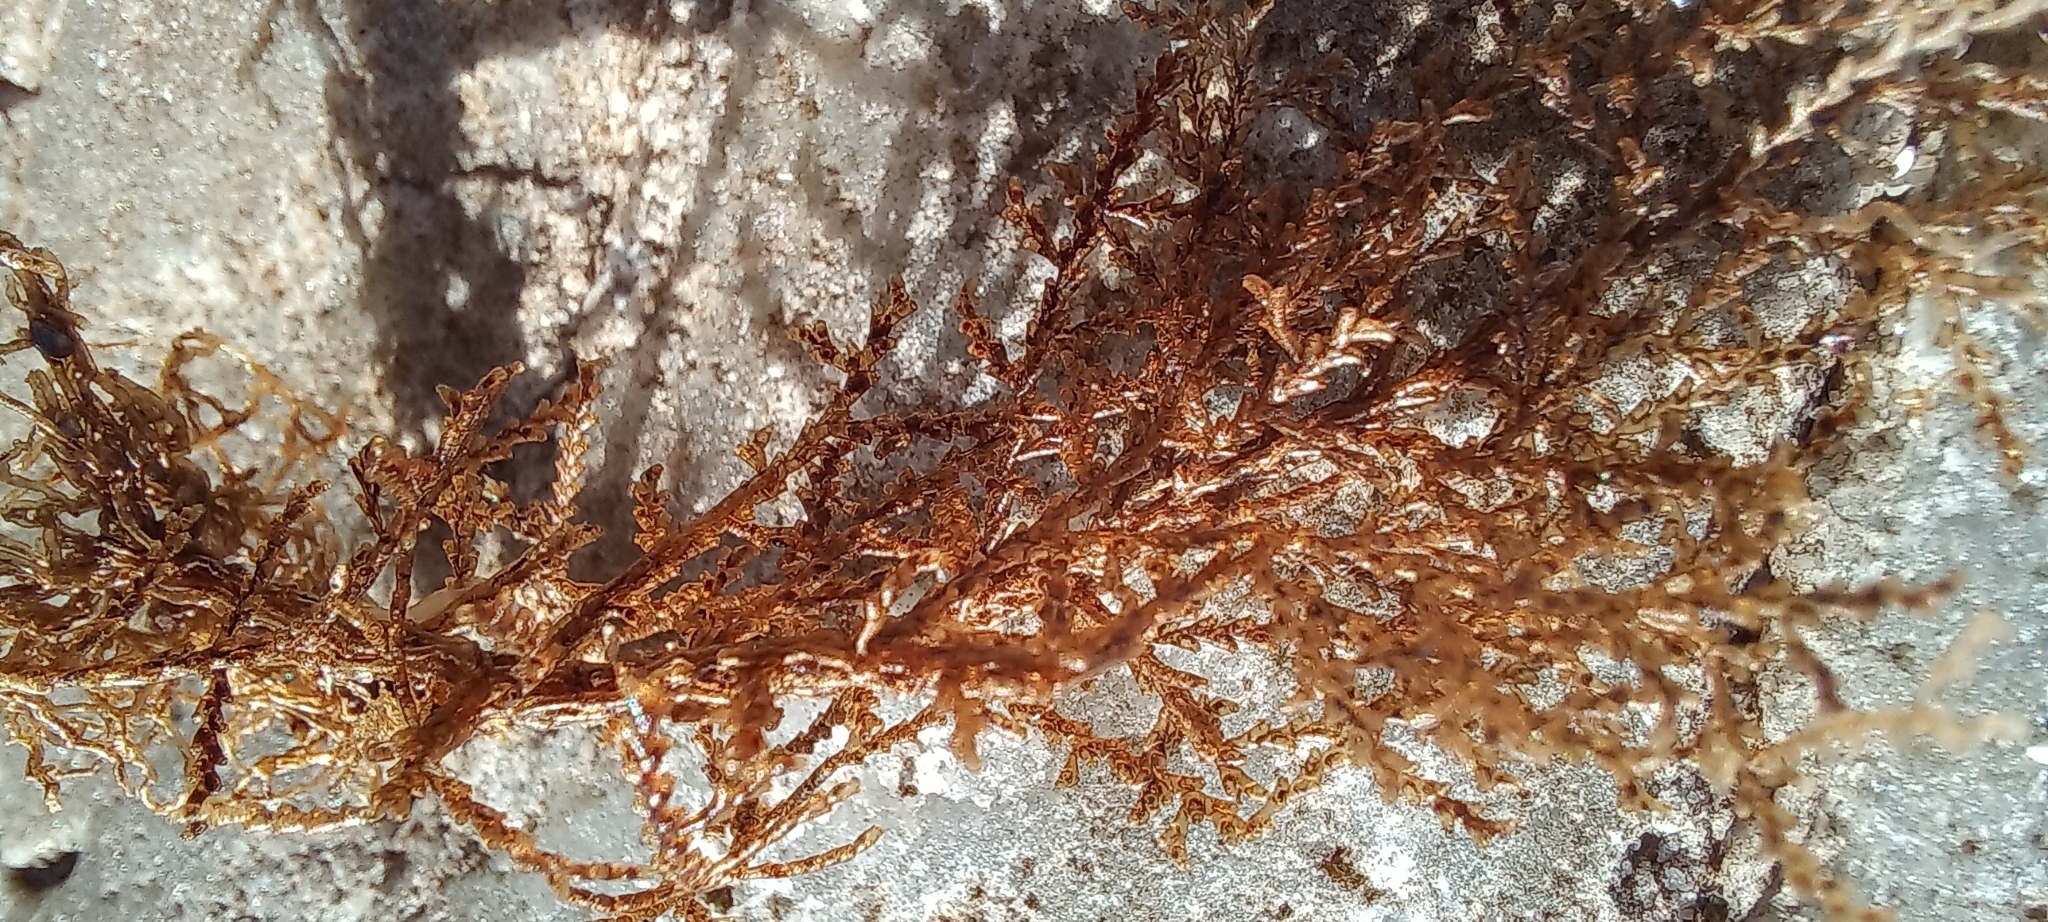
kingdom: Plantae
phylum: Rhodophyta
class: Florideophyceae
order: Ceramiales
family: Rhodomelaceae
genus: Rhodomelopsis
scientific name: Rhodomelopsis
